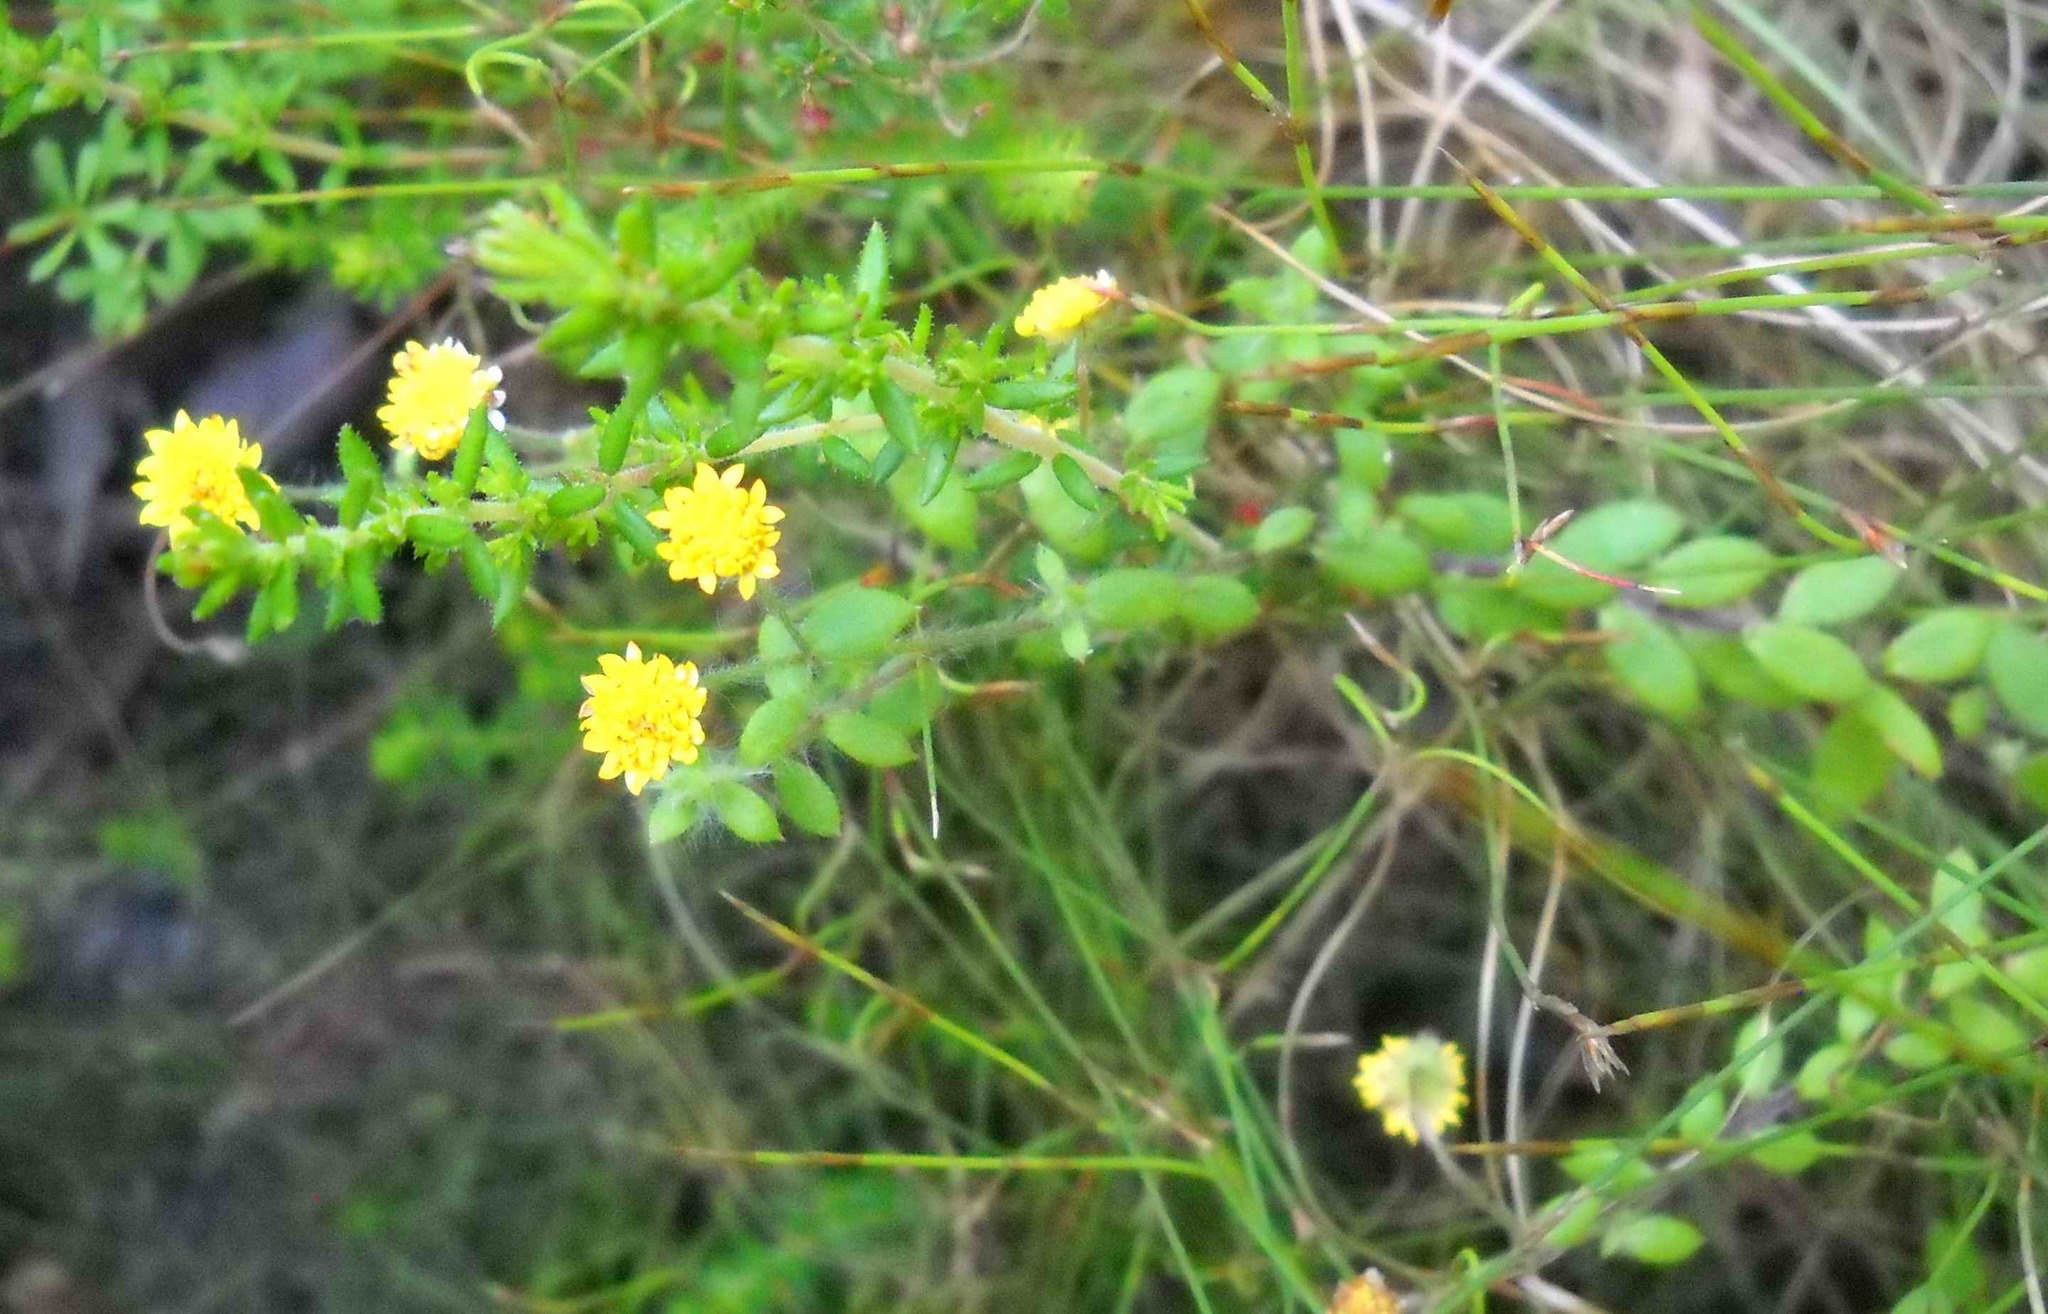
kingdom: Plantae
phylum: Tracheophyta
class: Magnoliopsida
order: Asterales
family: Asteraceae
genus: Hippia
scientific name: Hippia simplicior
